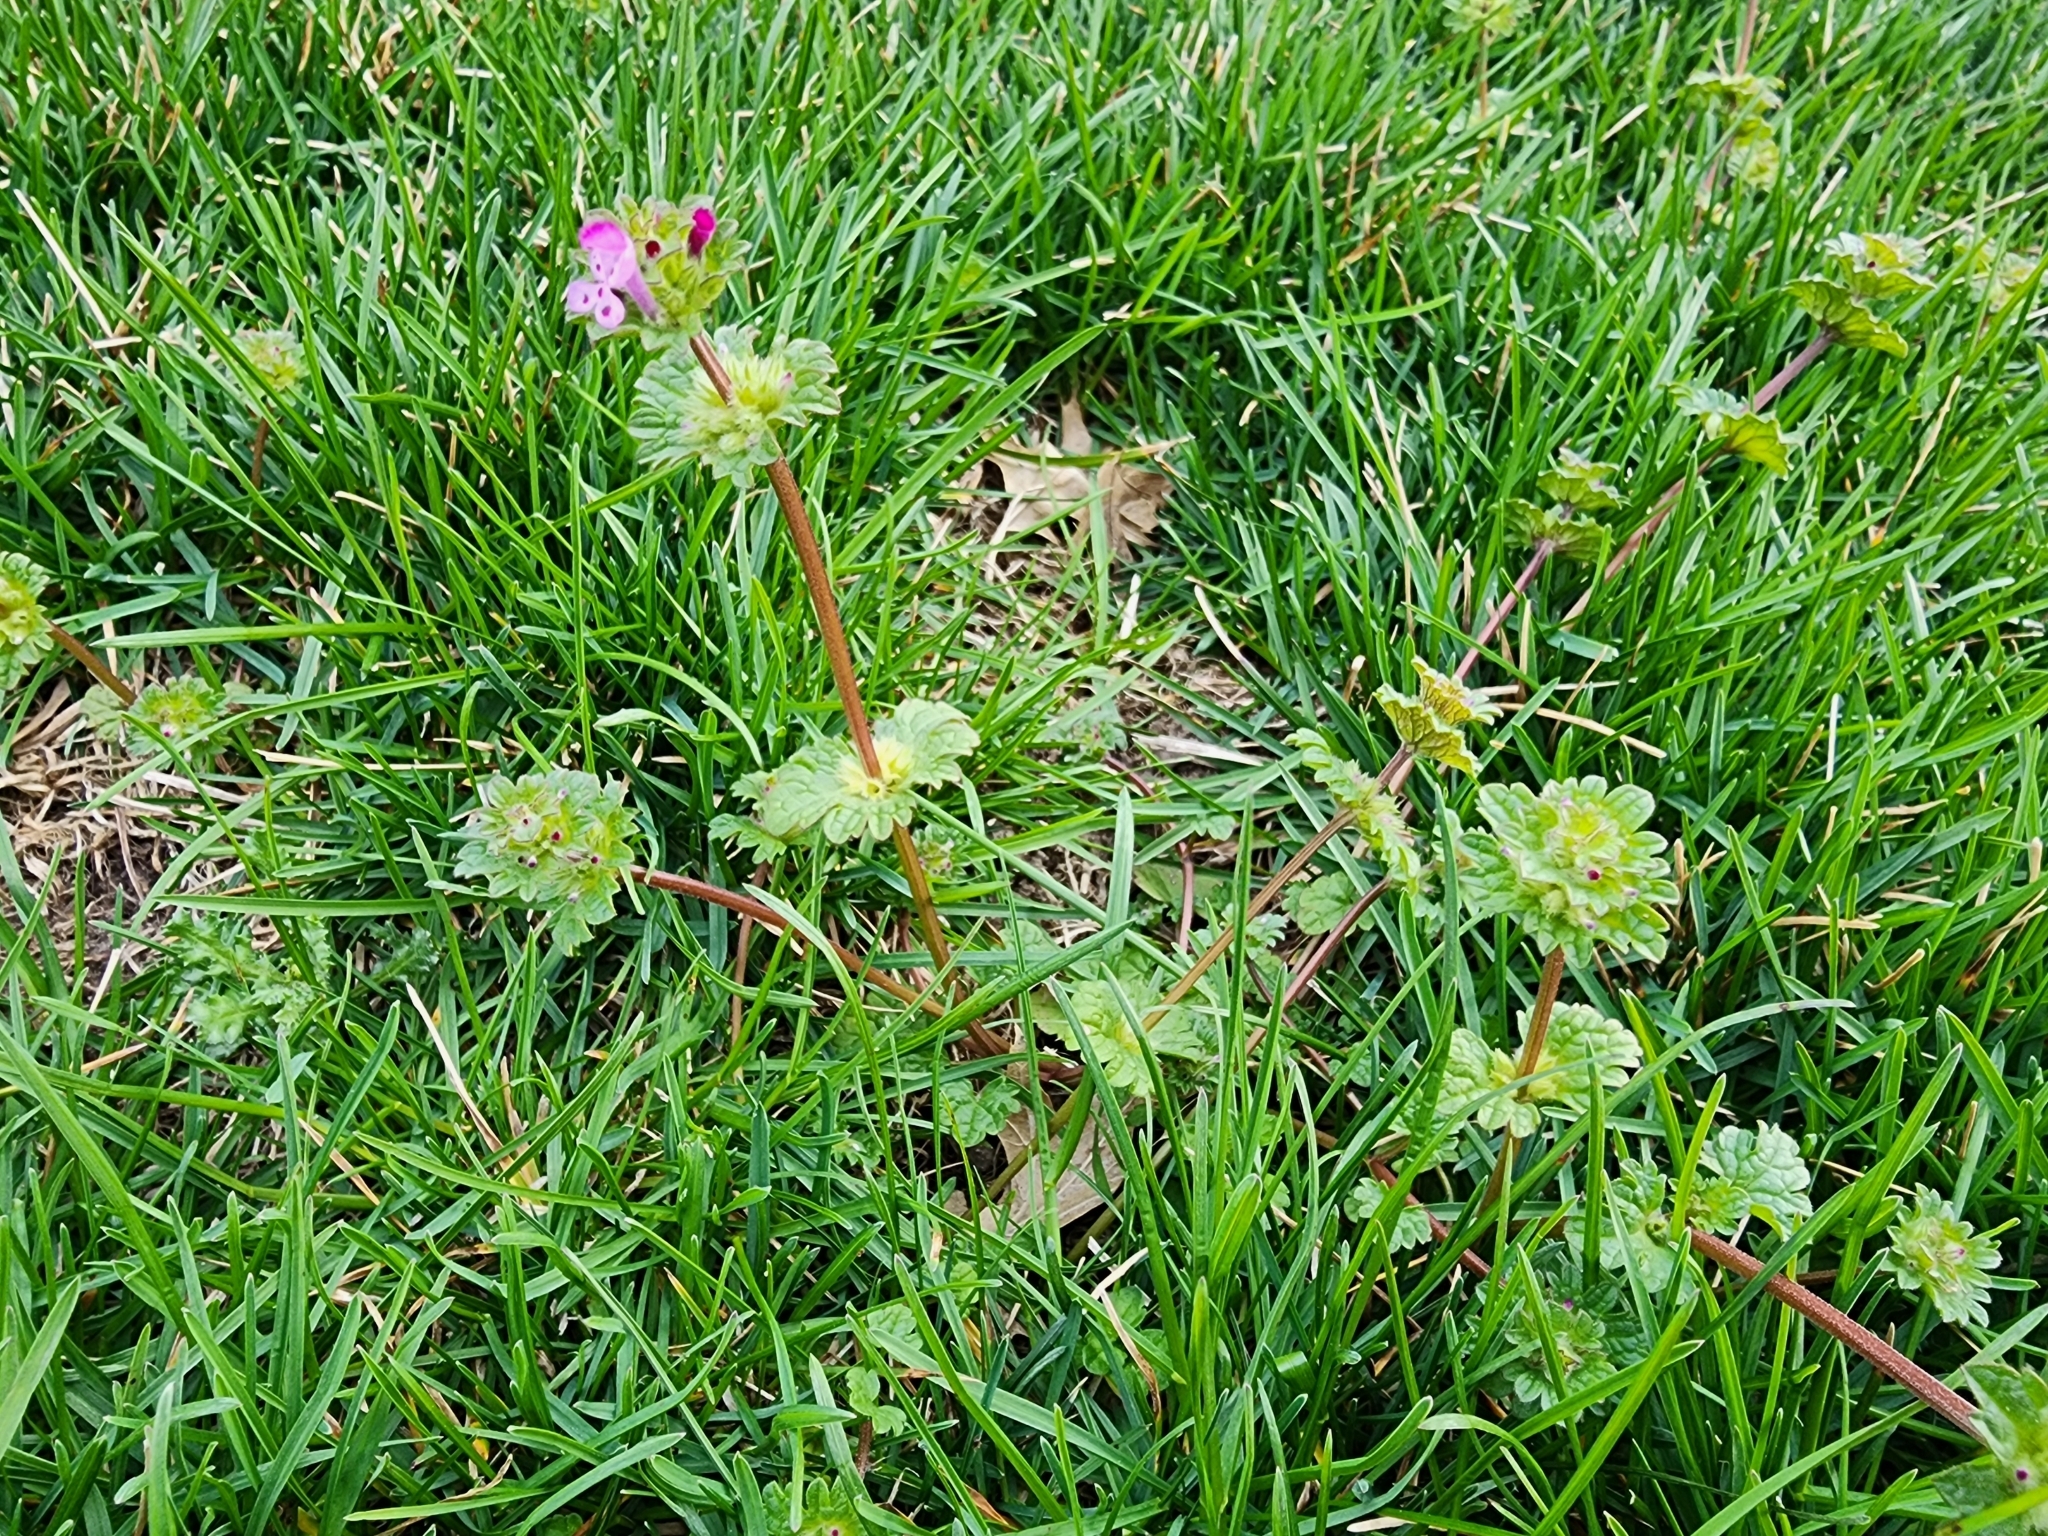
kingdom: Plantae
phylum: Tracheophyta
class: Magnoliopsida
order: Lamiales
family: Lamiaceae
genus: Lamium
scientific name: Lamium amplexicaule
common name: Henbit dead-nettle
